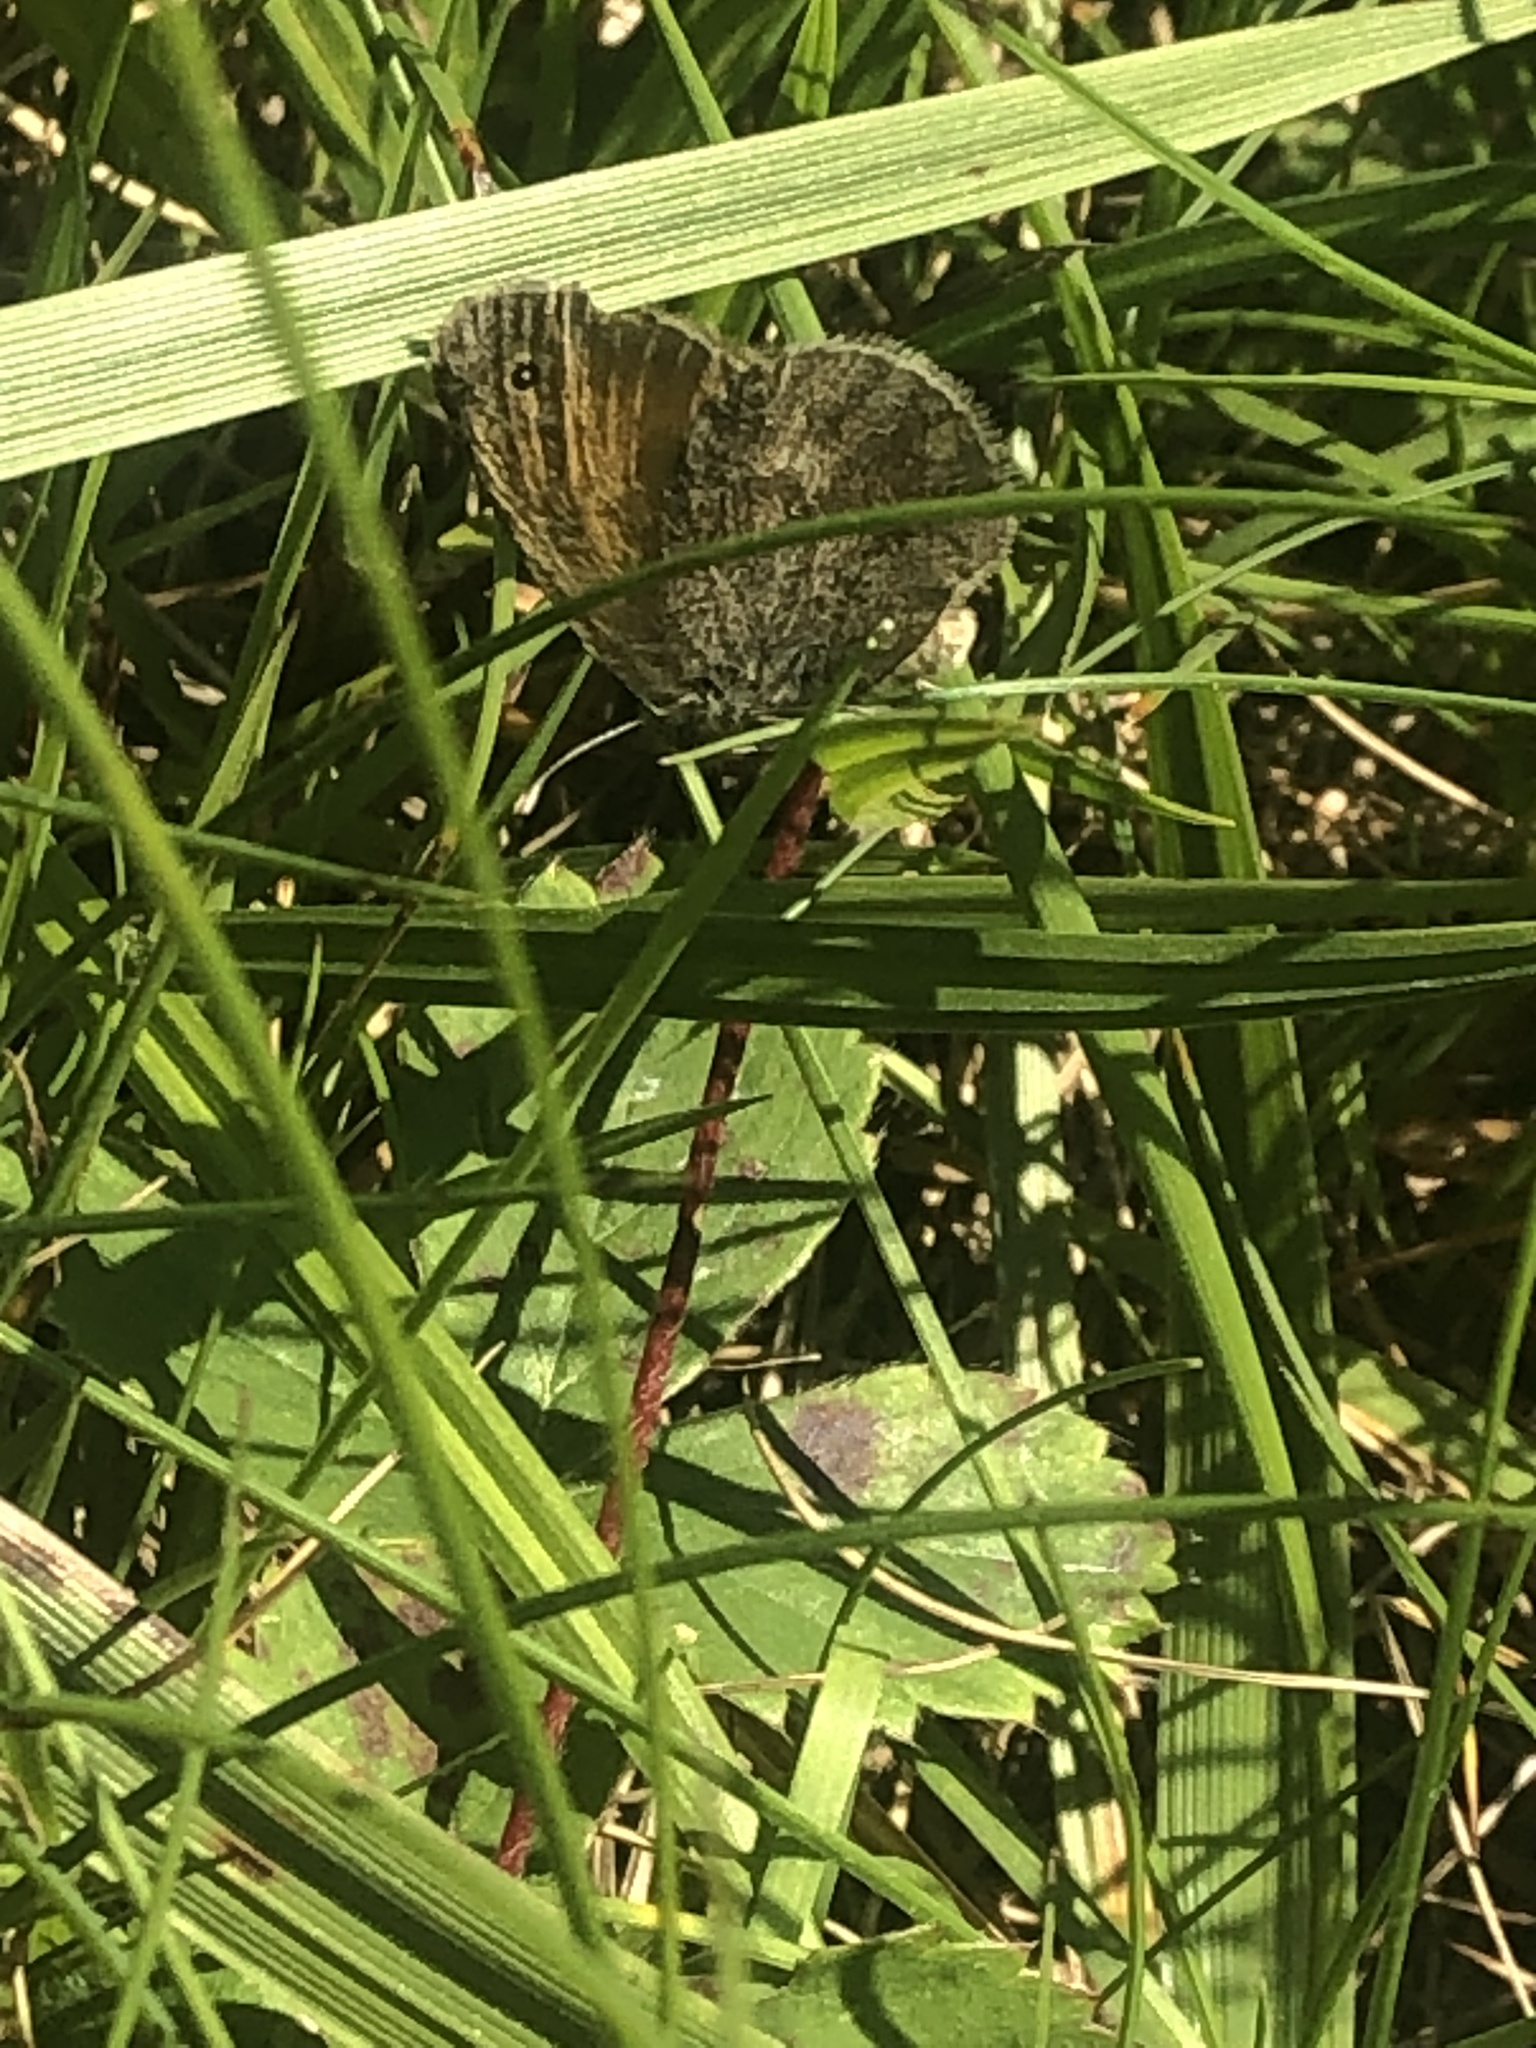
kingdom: Animalia
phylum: Arthropoda
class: Insecta
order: Lepidoptera
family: Nymphalidae
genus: Coenonympha
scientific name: Coenonympha california
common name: Common ringlet
